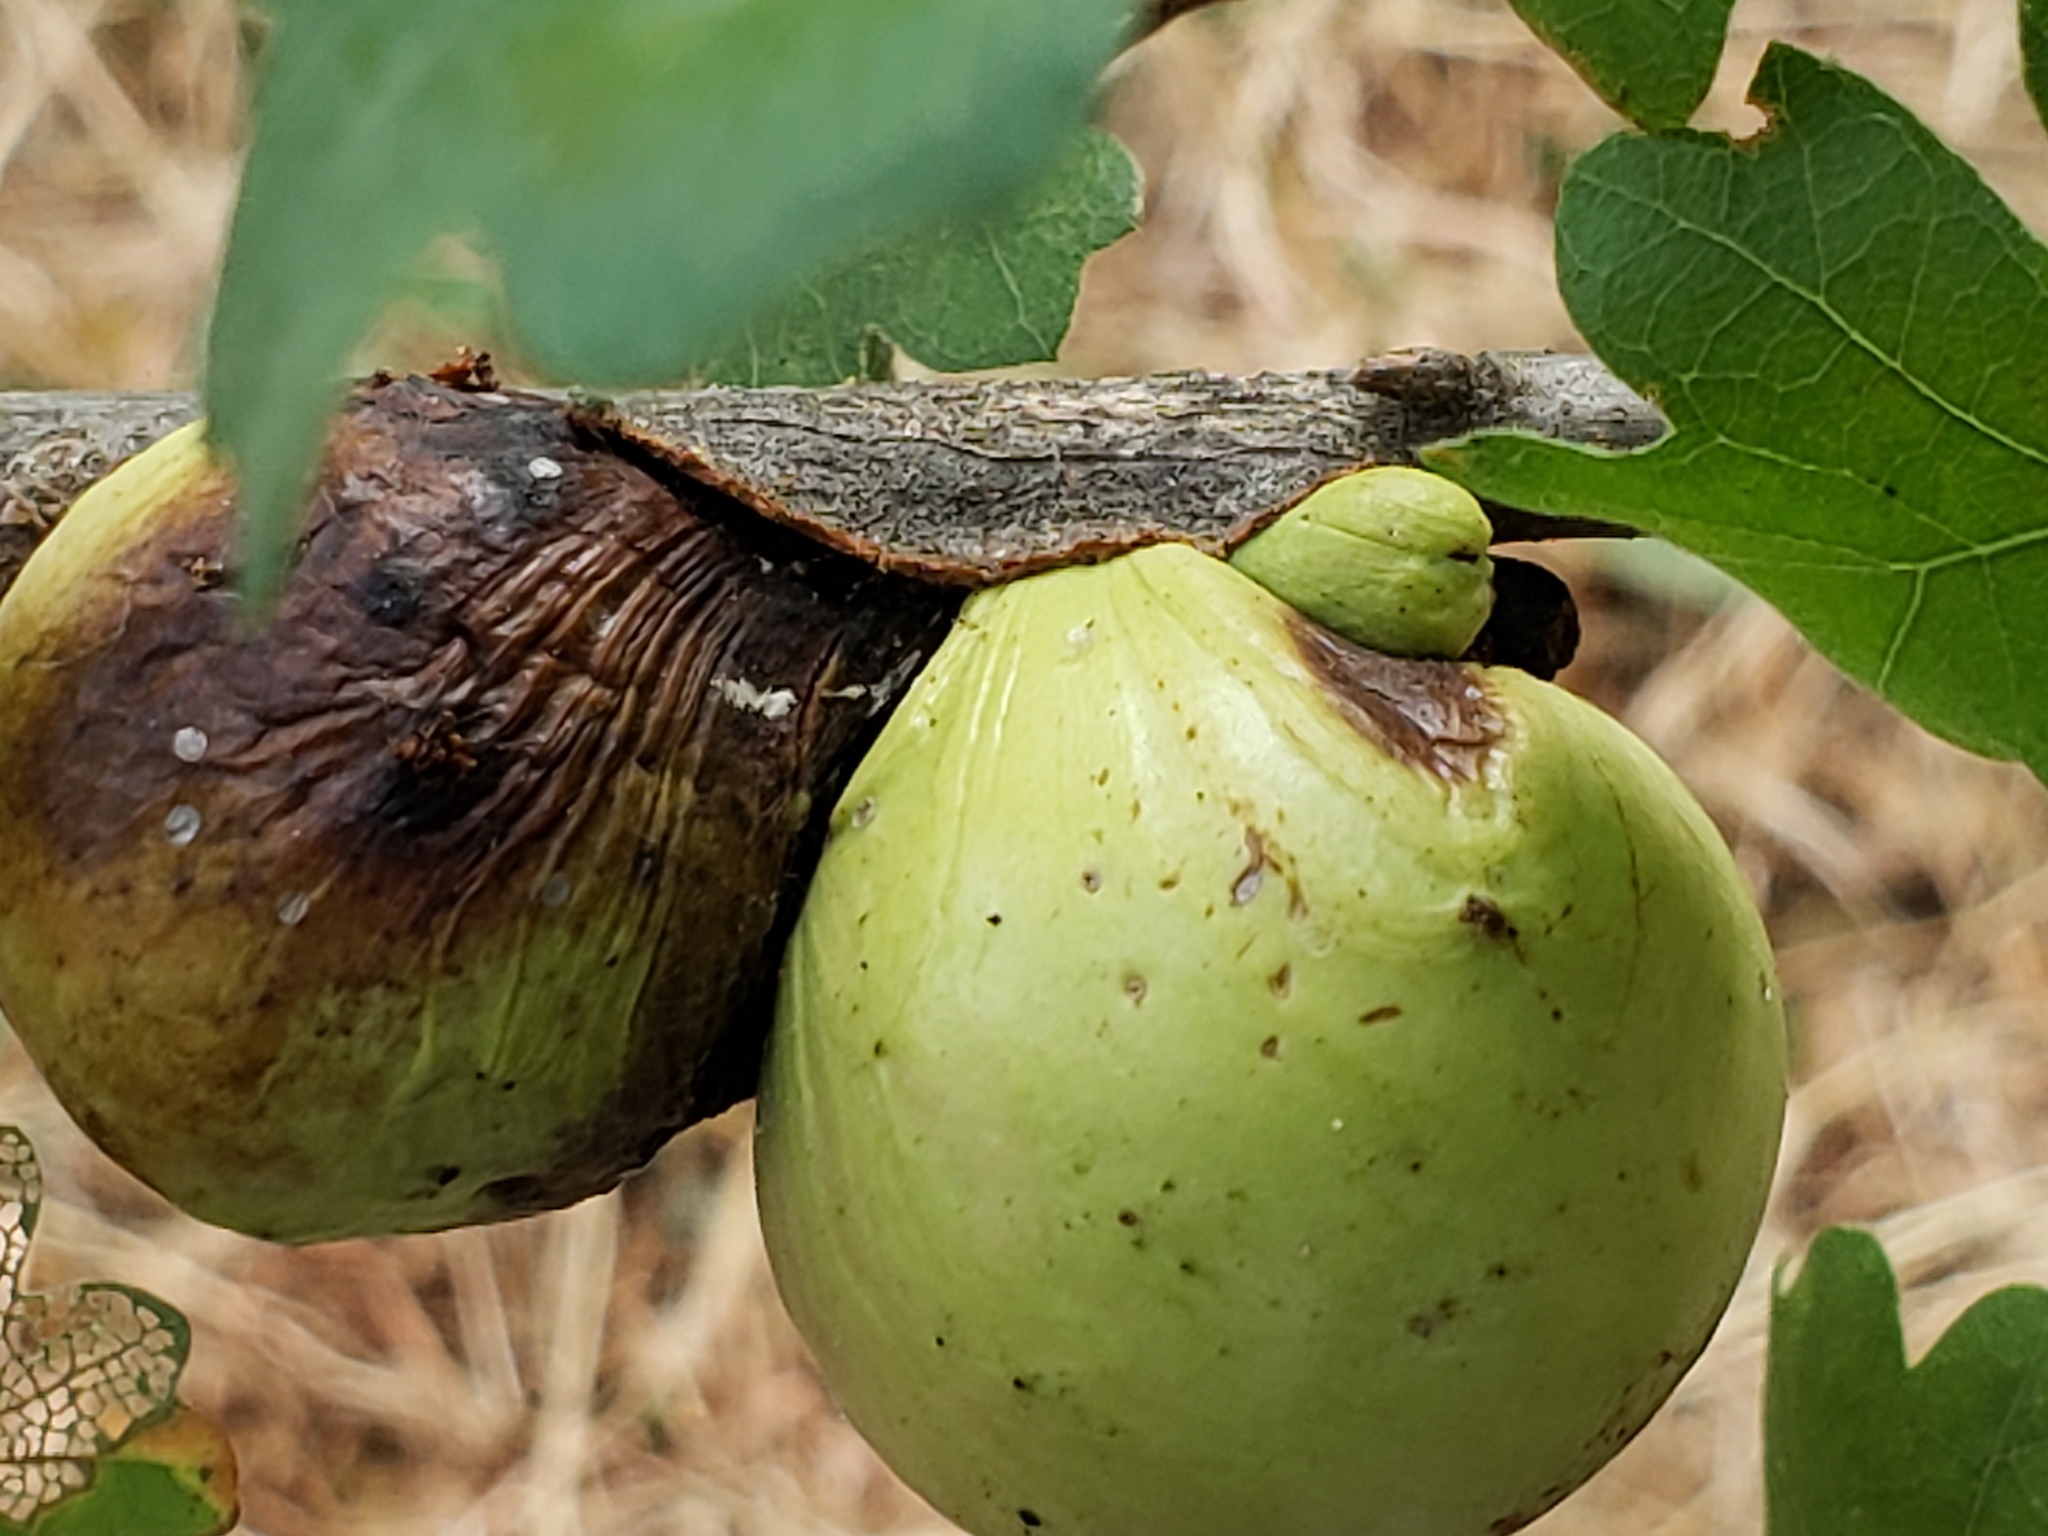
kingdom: Animalia
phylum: Arthropoda
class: Insecta
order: Hymenoptera
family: Cynipidae
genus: Andricus
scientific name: Andricus quercuscalifornicus
